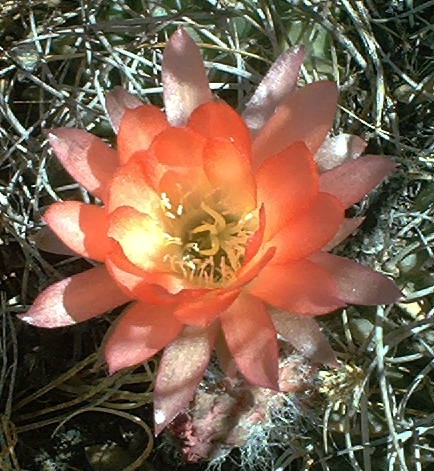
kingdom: Plantae
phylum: Tracheophyta
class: Magnoliopsida
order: Caryophyllales
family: Cactaceae
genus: Lobivia
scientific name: Lobivia pentlandii
